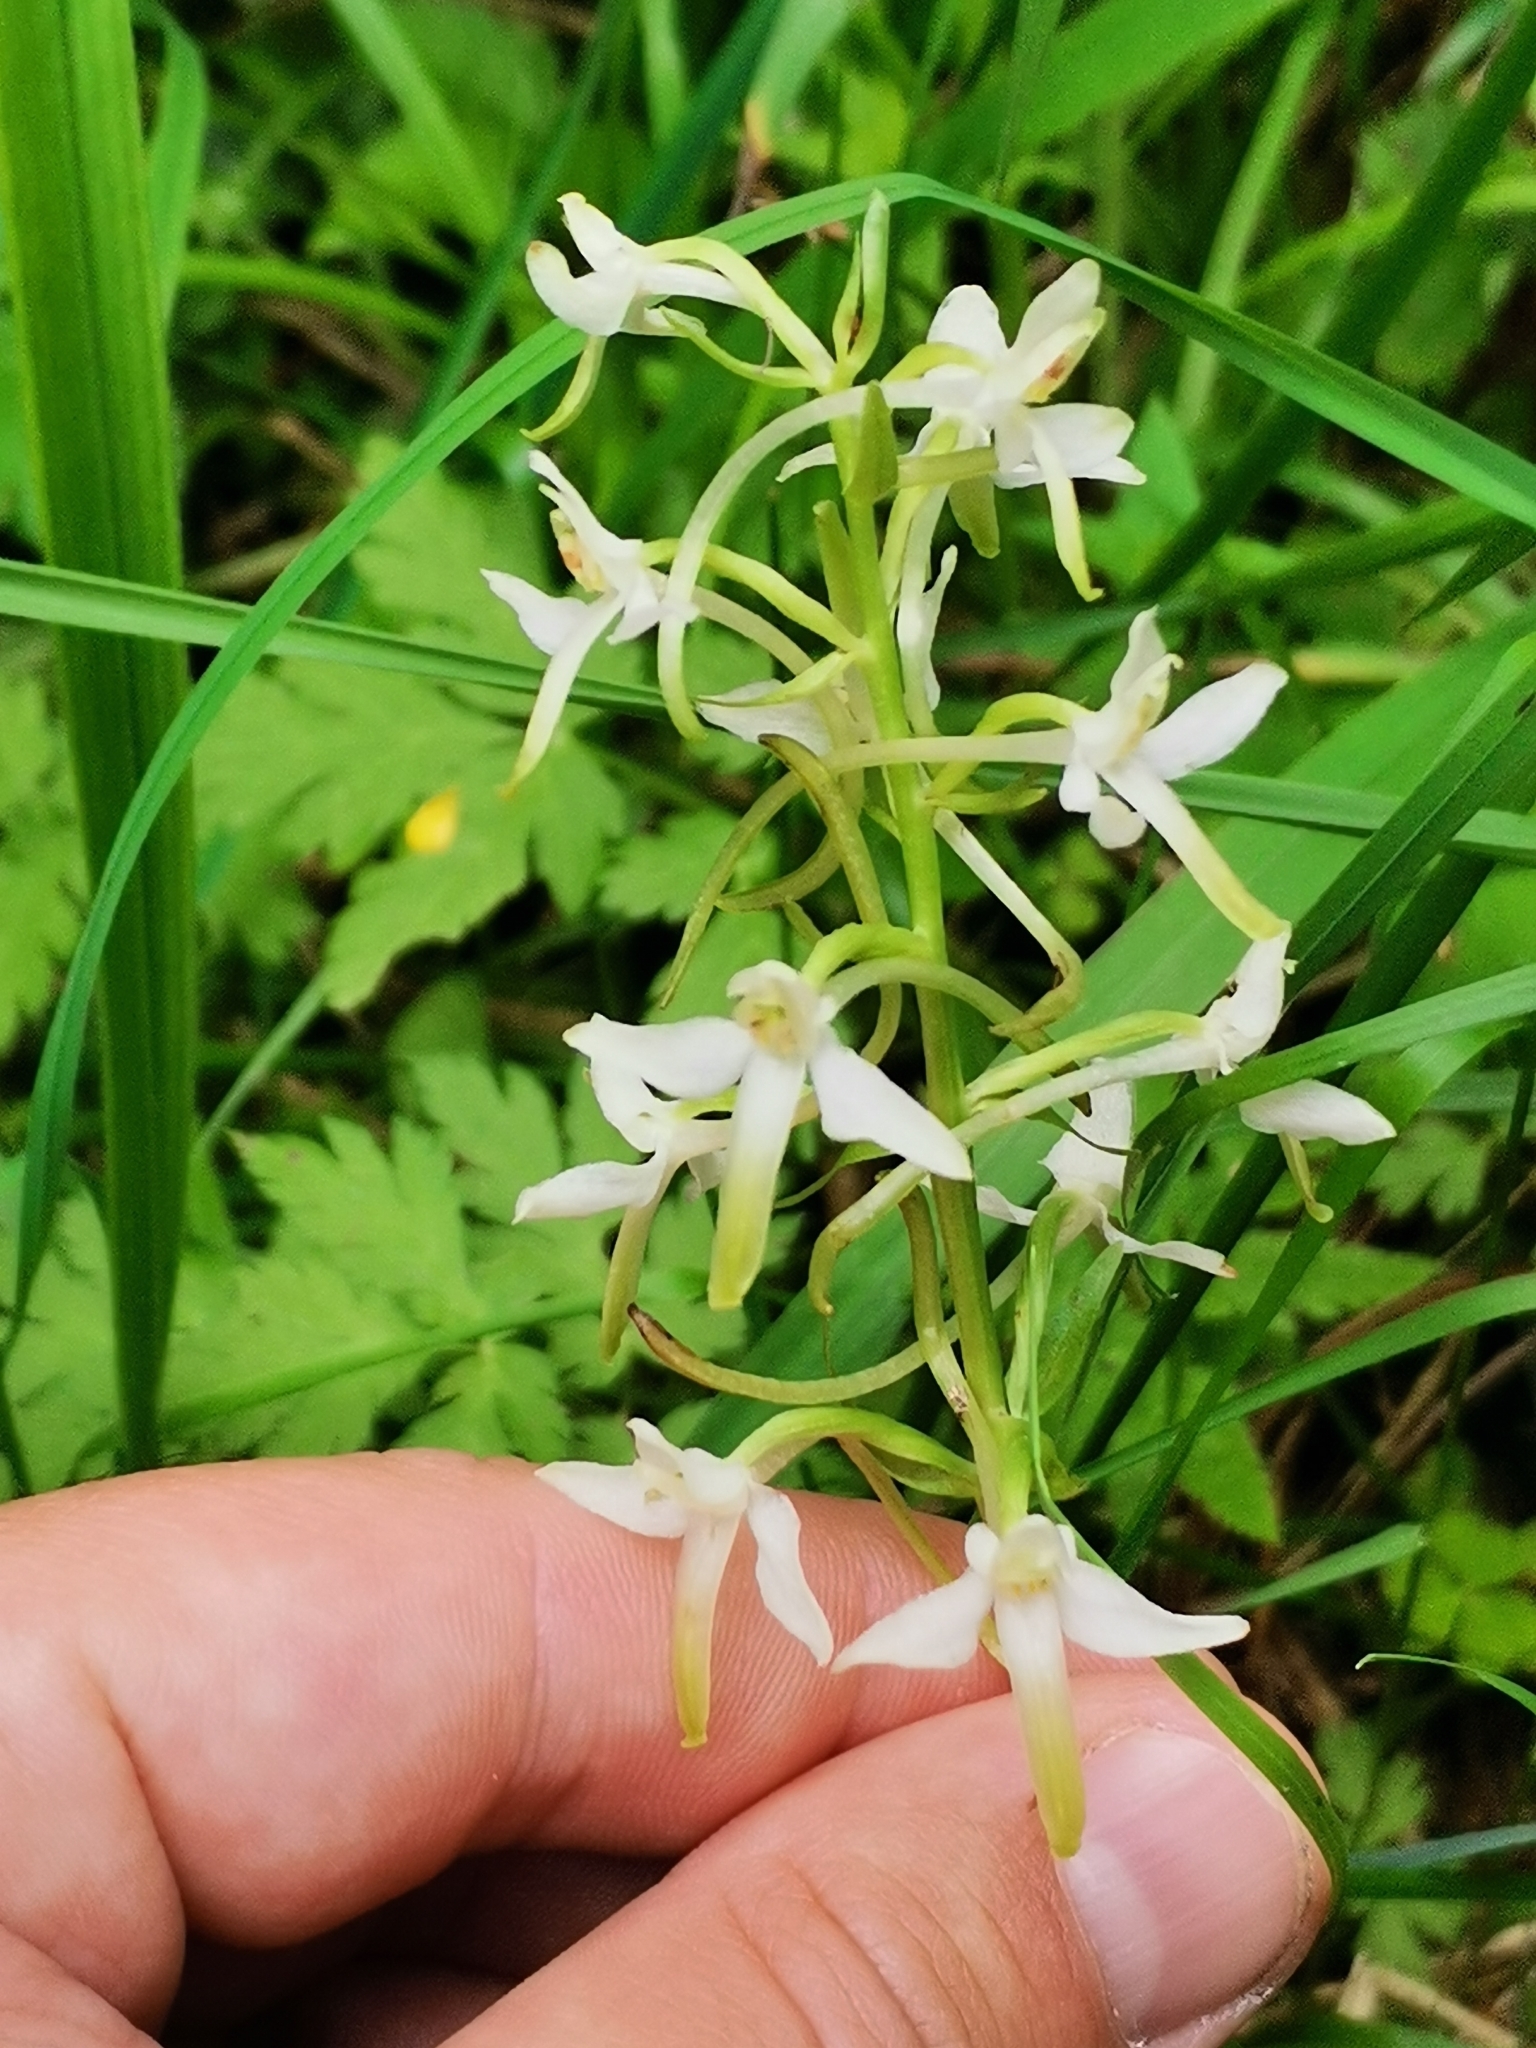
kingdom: Plantae
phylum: Tracheophyta
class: Liliopsida
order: Asparagales
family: Orchidaceae
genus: Platanthera
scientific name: Platanthera bifolia
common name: Lesser butterfly-orchid
